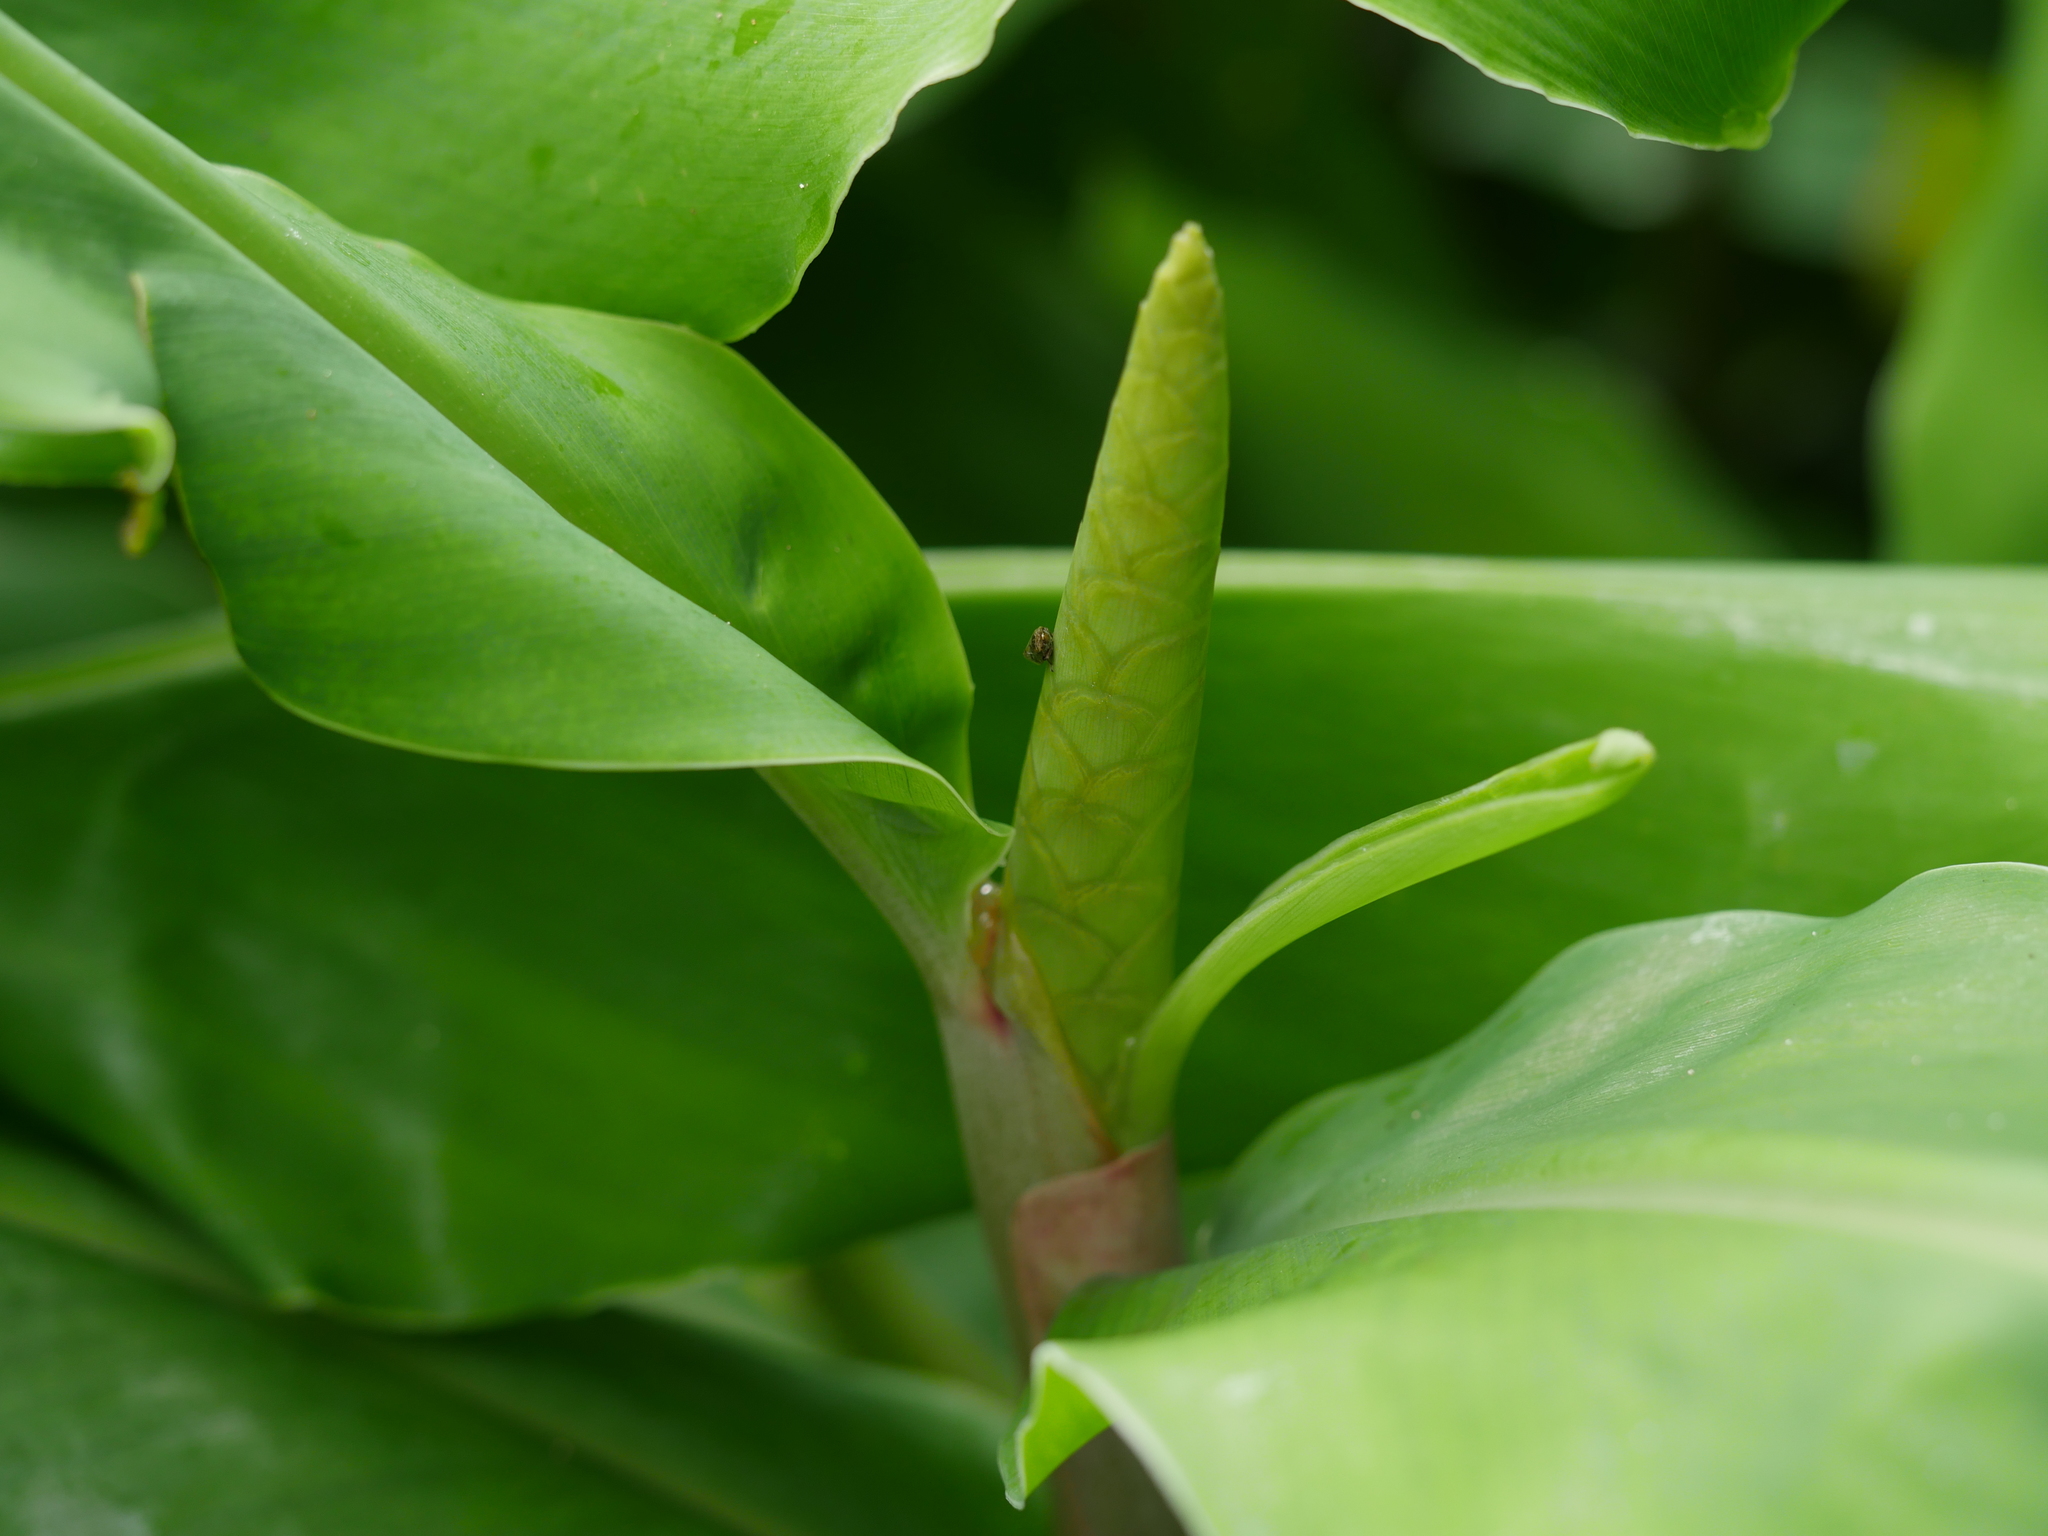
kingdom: Plantae
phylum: Tracheophyta
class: Liliopsida
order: Zingiberales
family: Zingiberaceae
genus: Hedychium
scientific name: Hedychium gardnerianum
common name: Himalayan ginger
